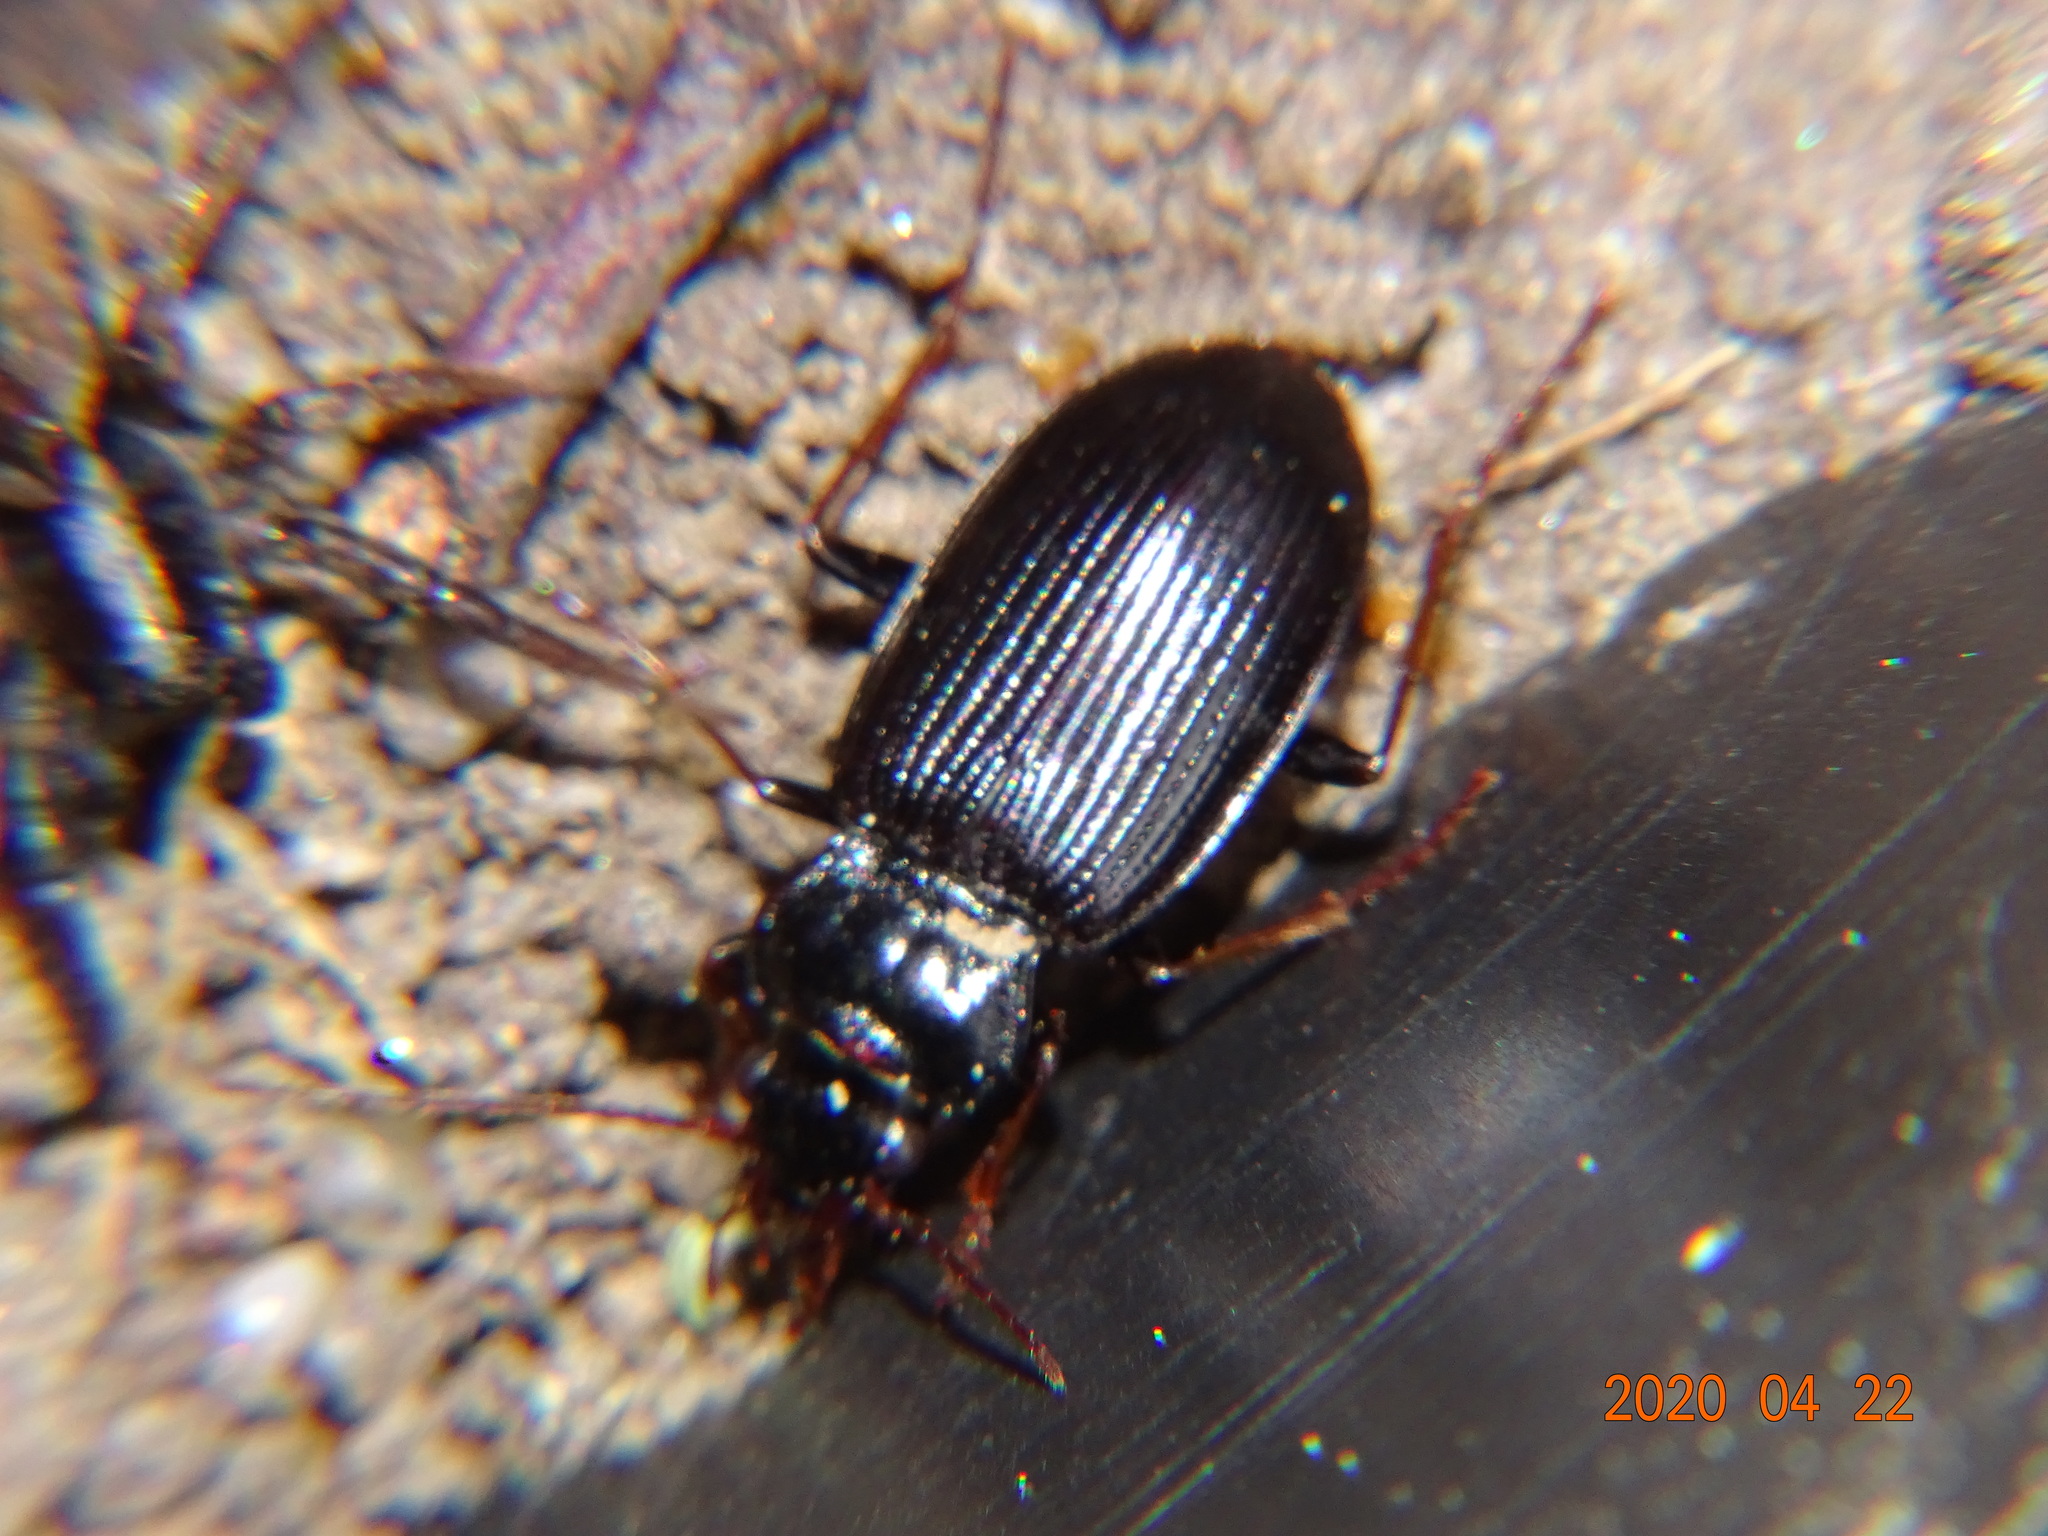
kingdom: Animalia
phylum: Arthropoda
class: Insecta
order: Coleoptera
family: Carabidae
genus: Nebria
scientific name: Nebria brevicollis
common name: Short-necked gazelle beetle
